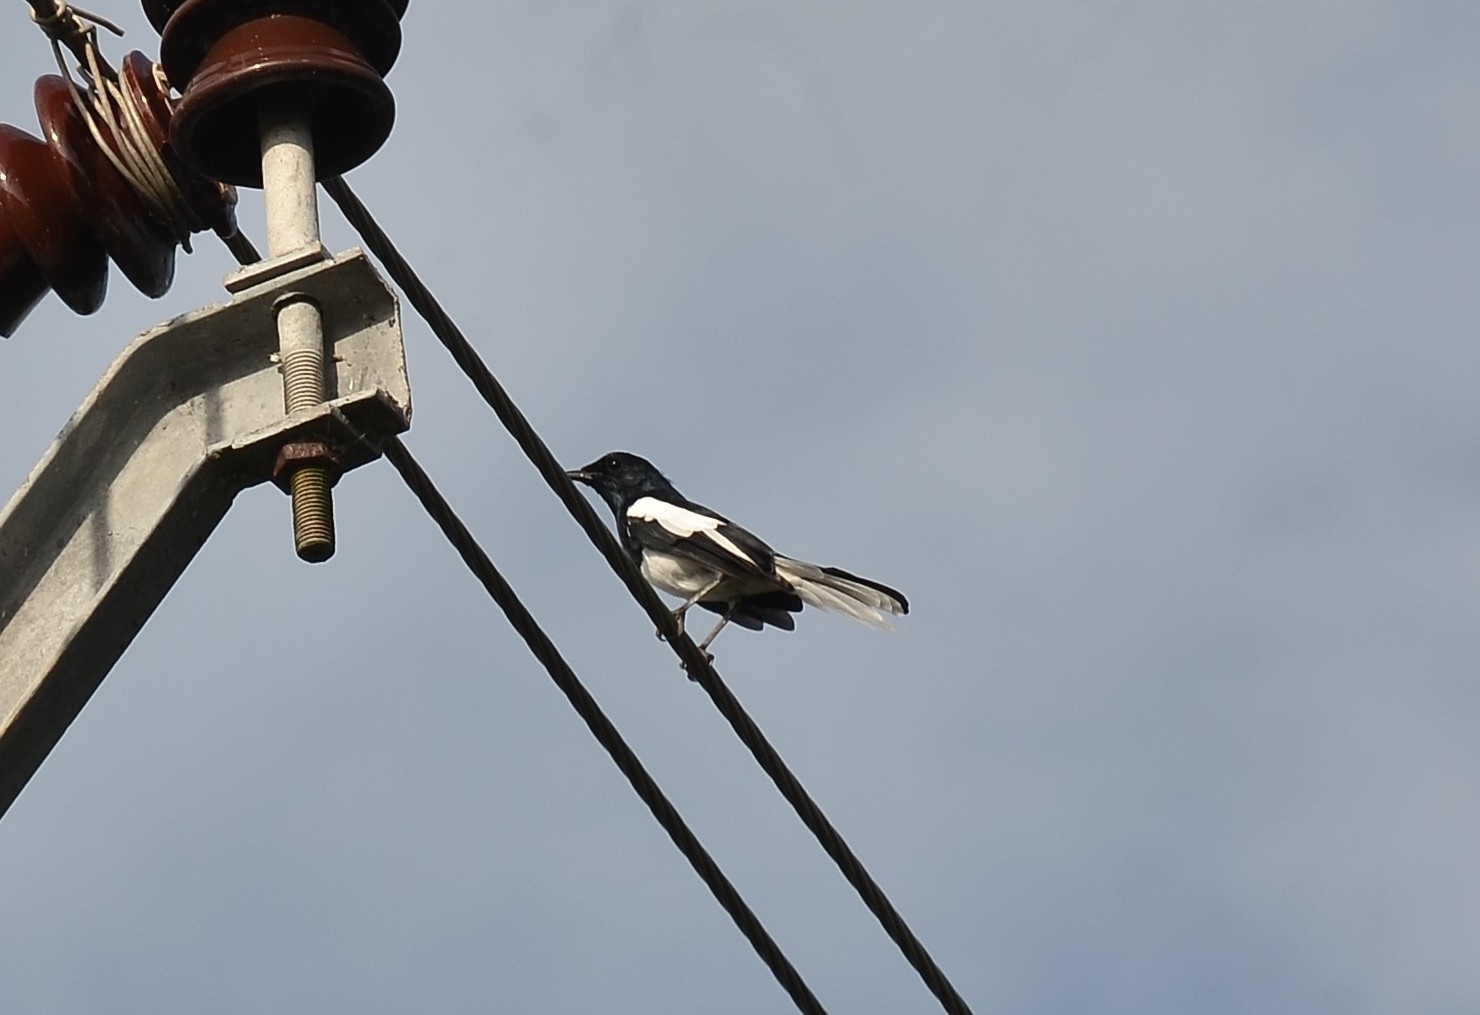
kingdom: Animalia
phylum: Chordata
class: Aves
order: Passeriformes
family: Muscicapidae
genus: Copsychus
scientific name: Copsychus saularis
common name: Oriental magpie-robin
